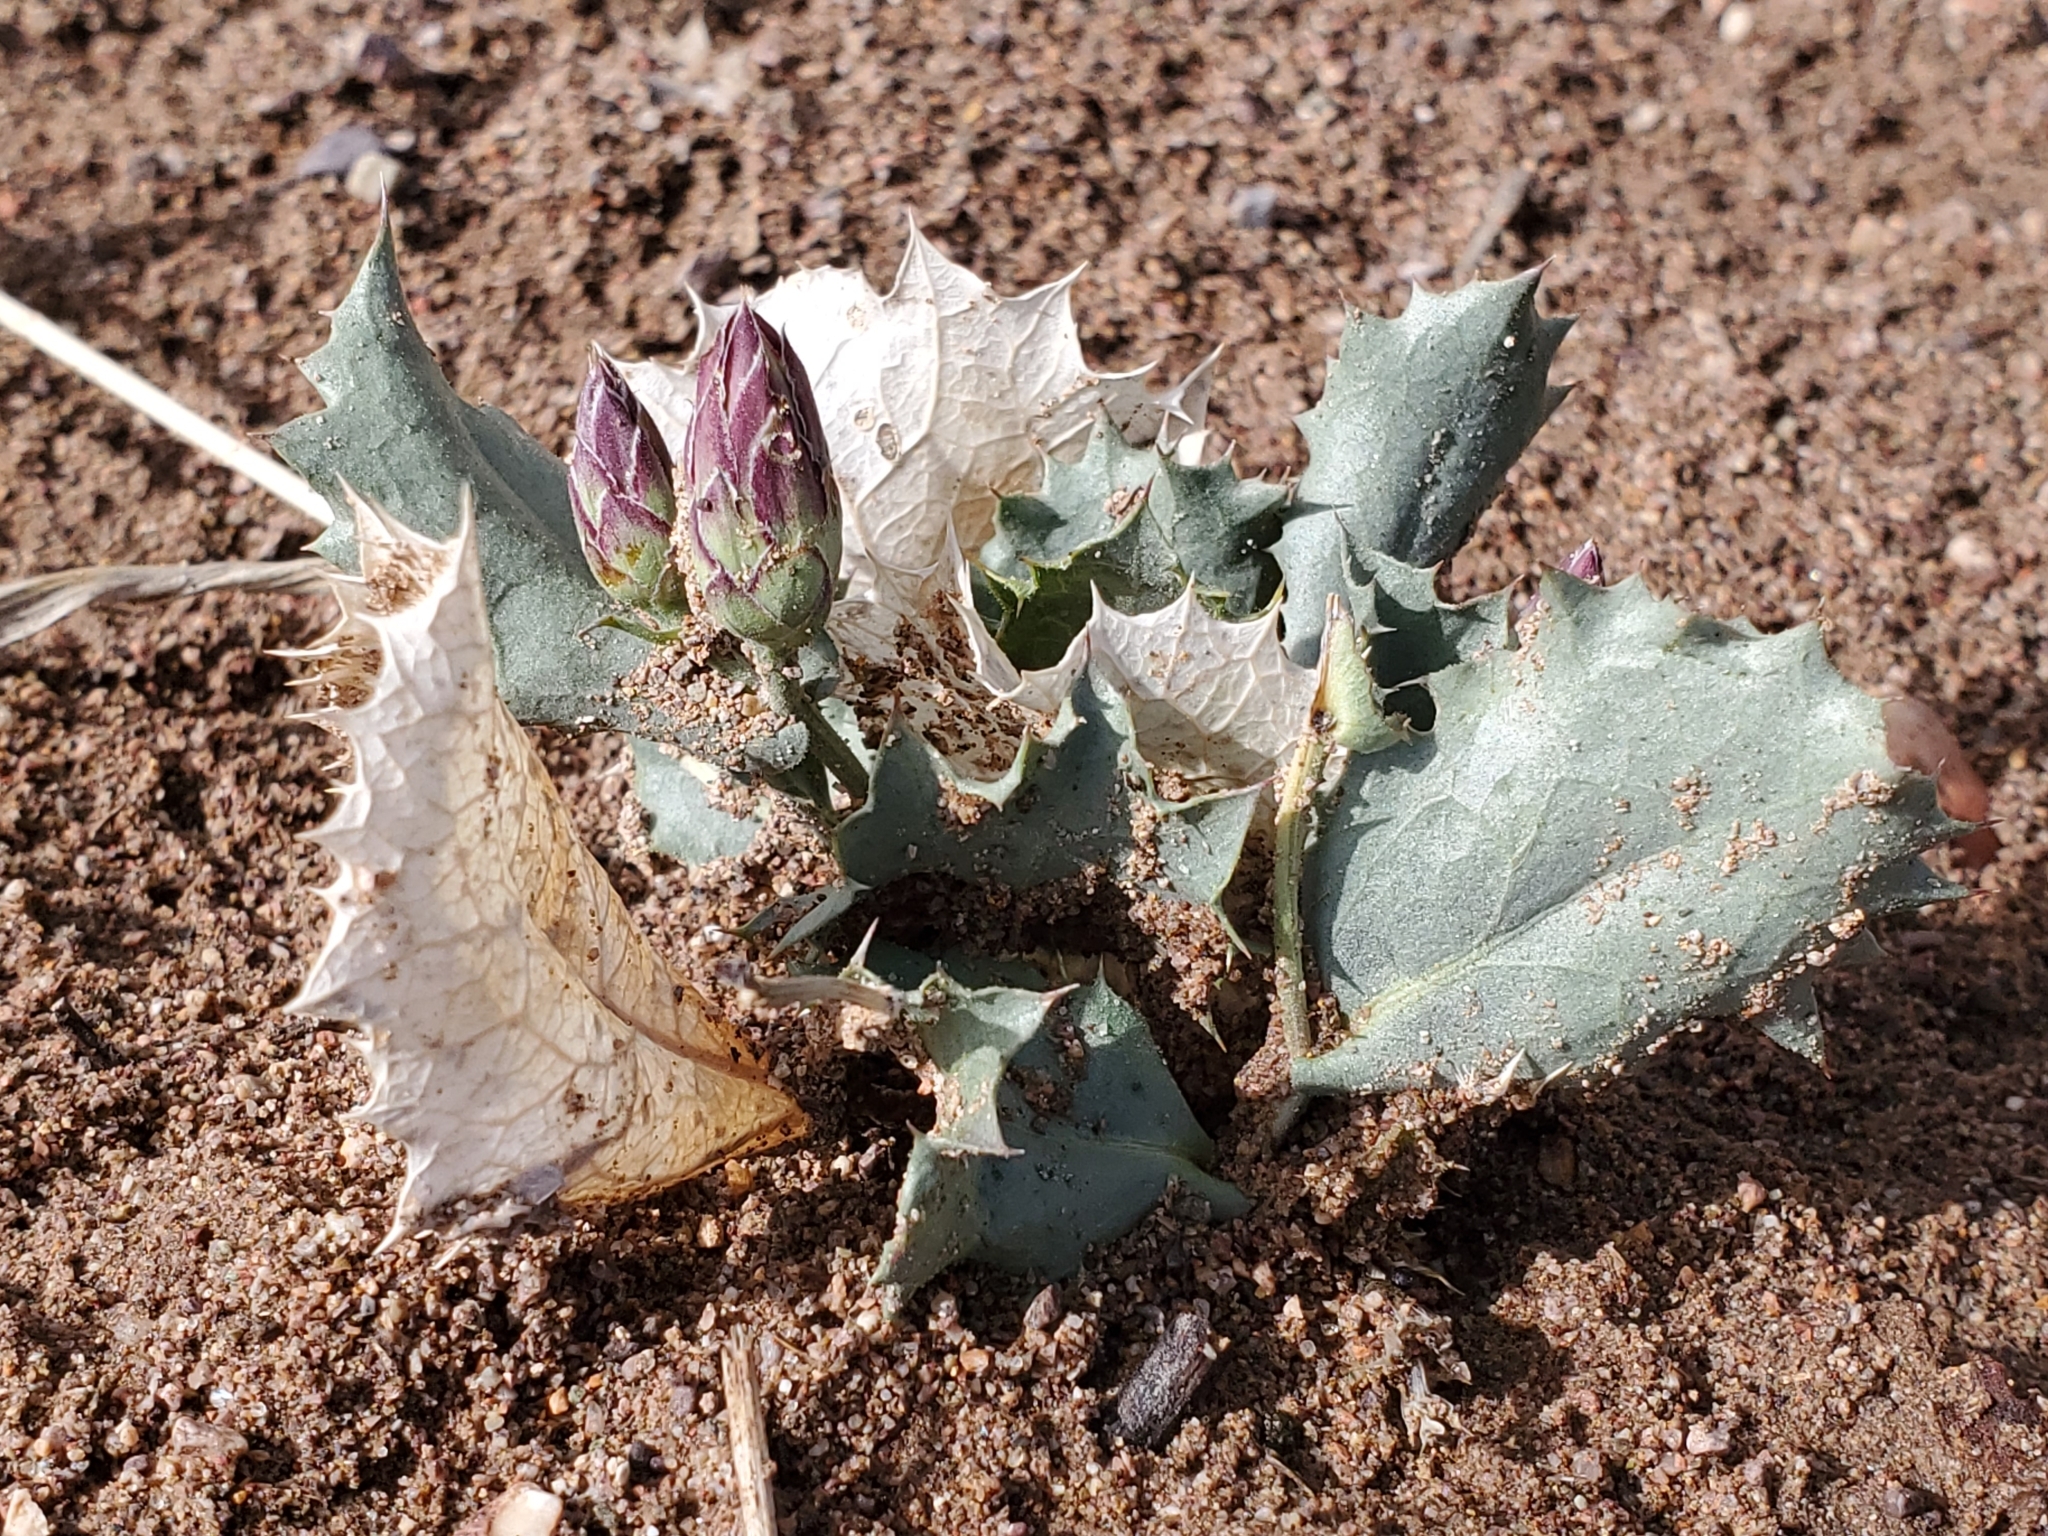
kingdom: Plantae
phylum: Tracheophyta
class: Magnoliopsida
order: Asterales
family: Asteraceae
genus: Acourtia
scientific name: Acourtia nana
